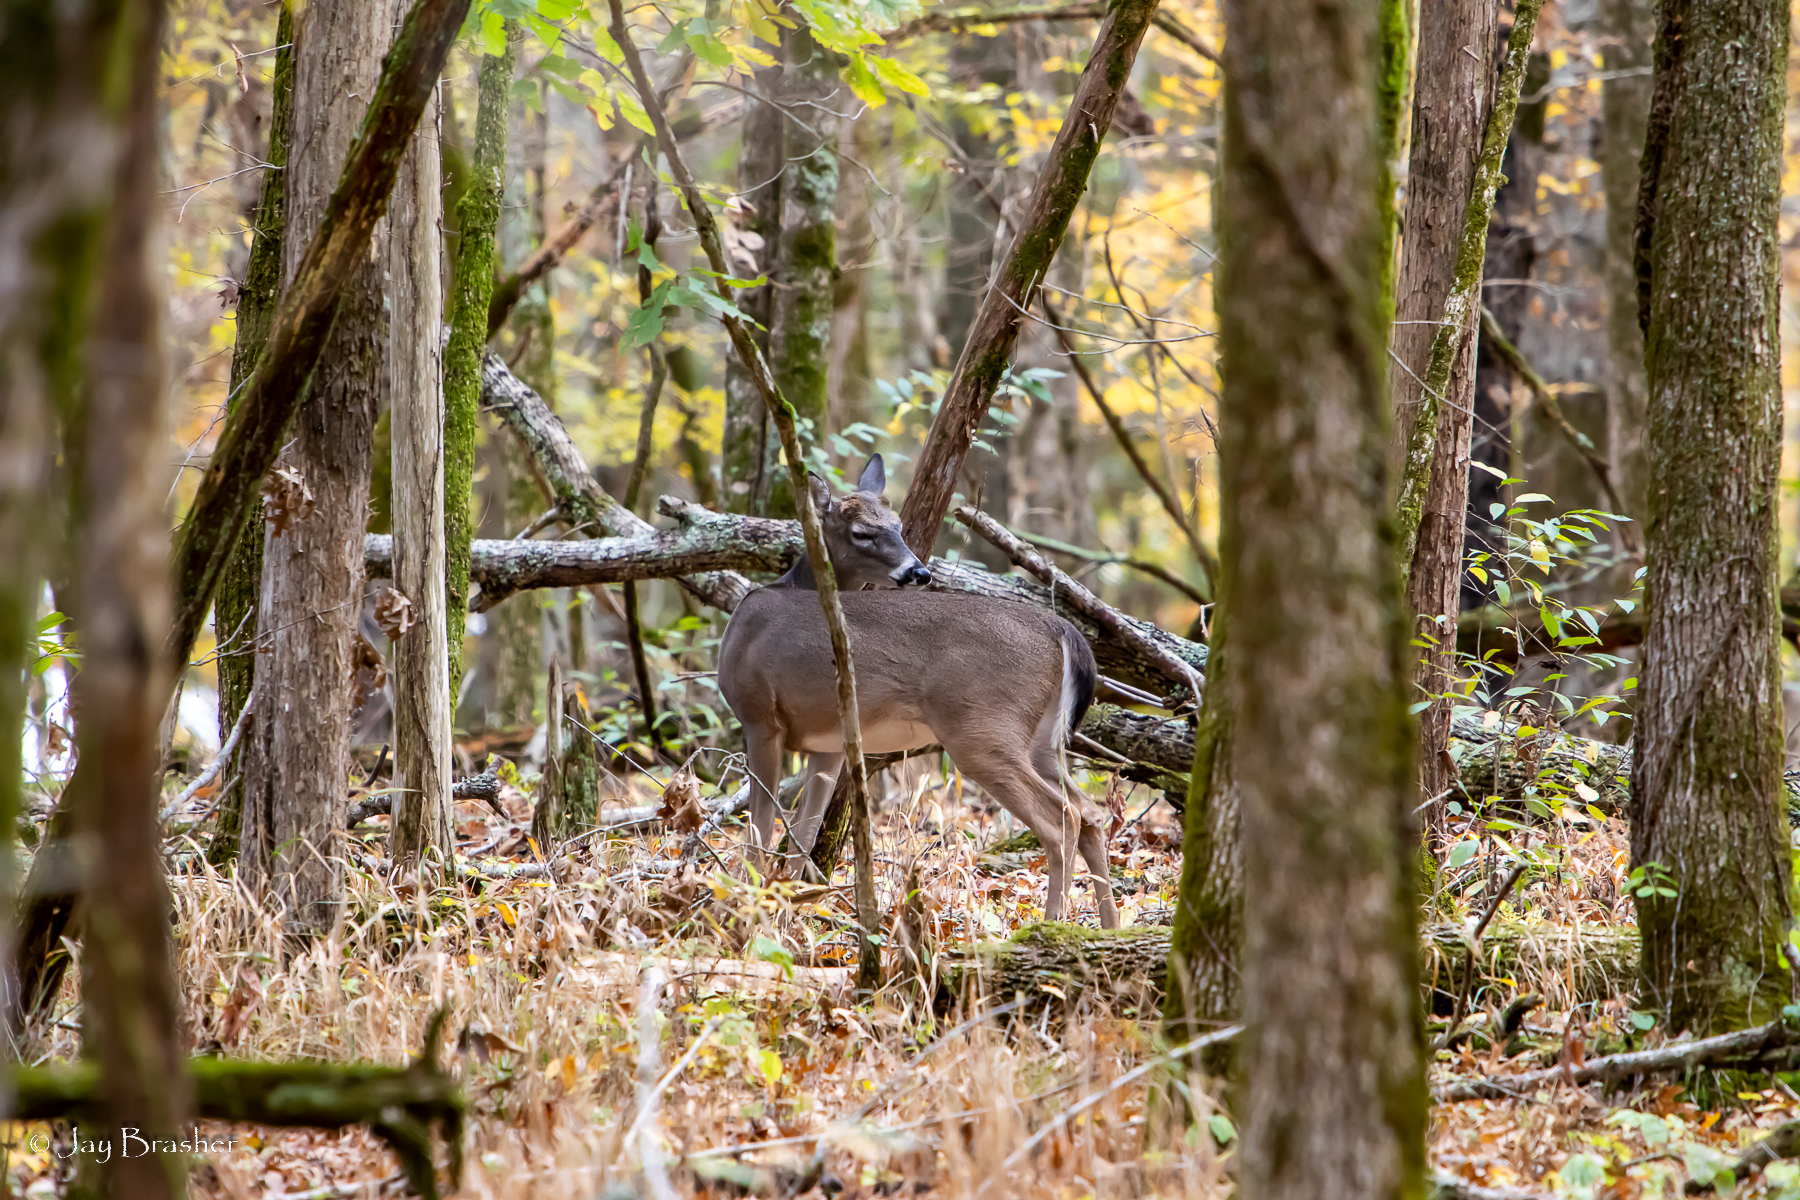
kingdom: Animalia
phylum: Chordata
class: Mammalia
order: Artiodactyla
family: Cervidae
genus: Odocoileus
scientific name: Odocoileus virginianus
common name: White-tailed deer
